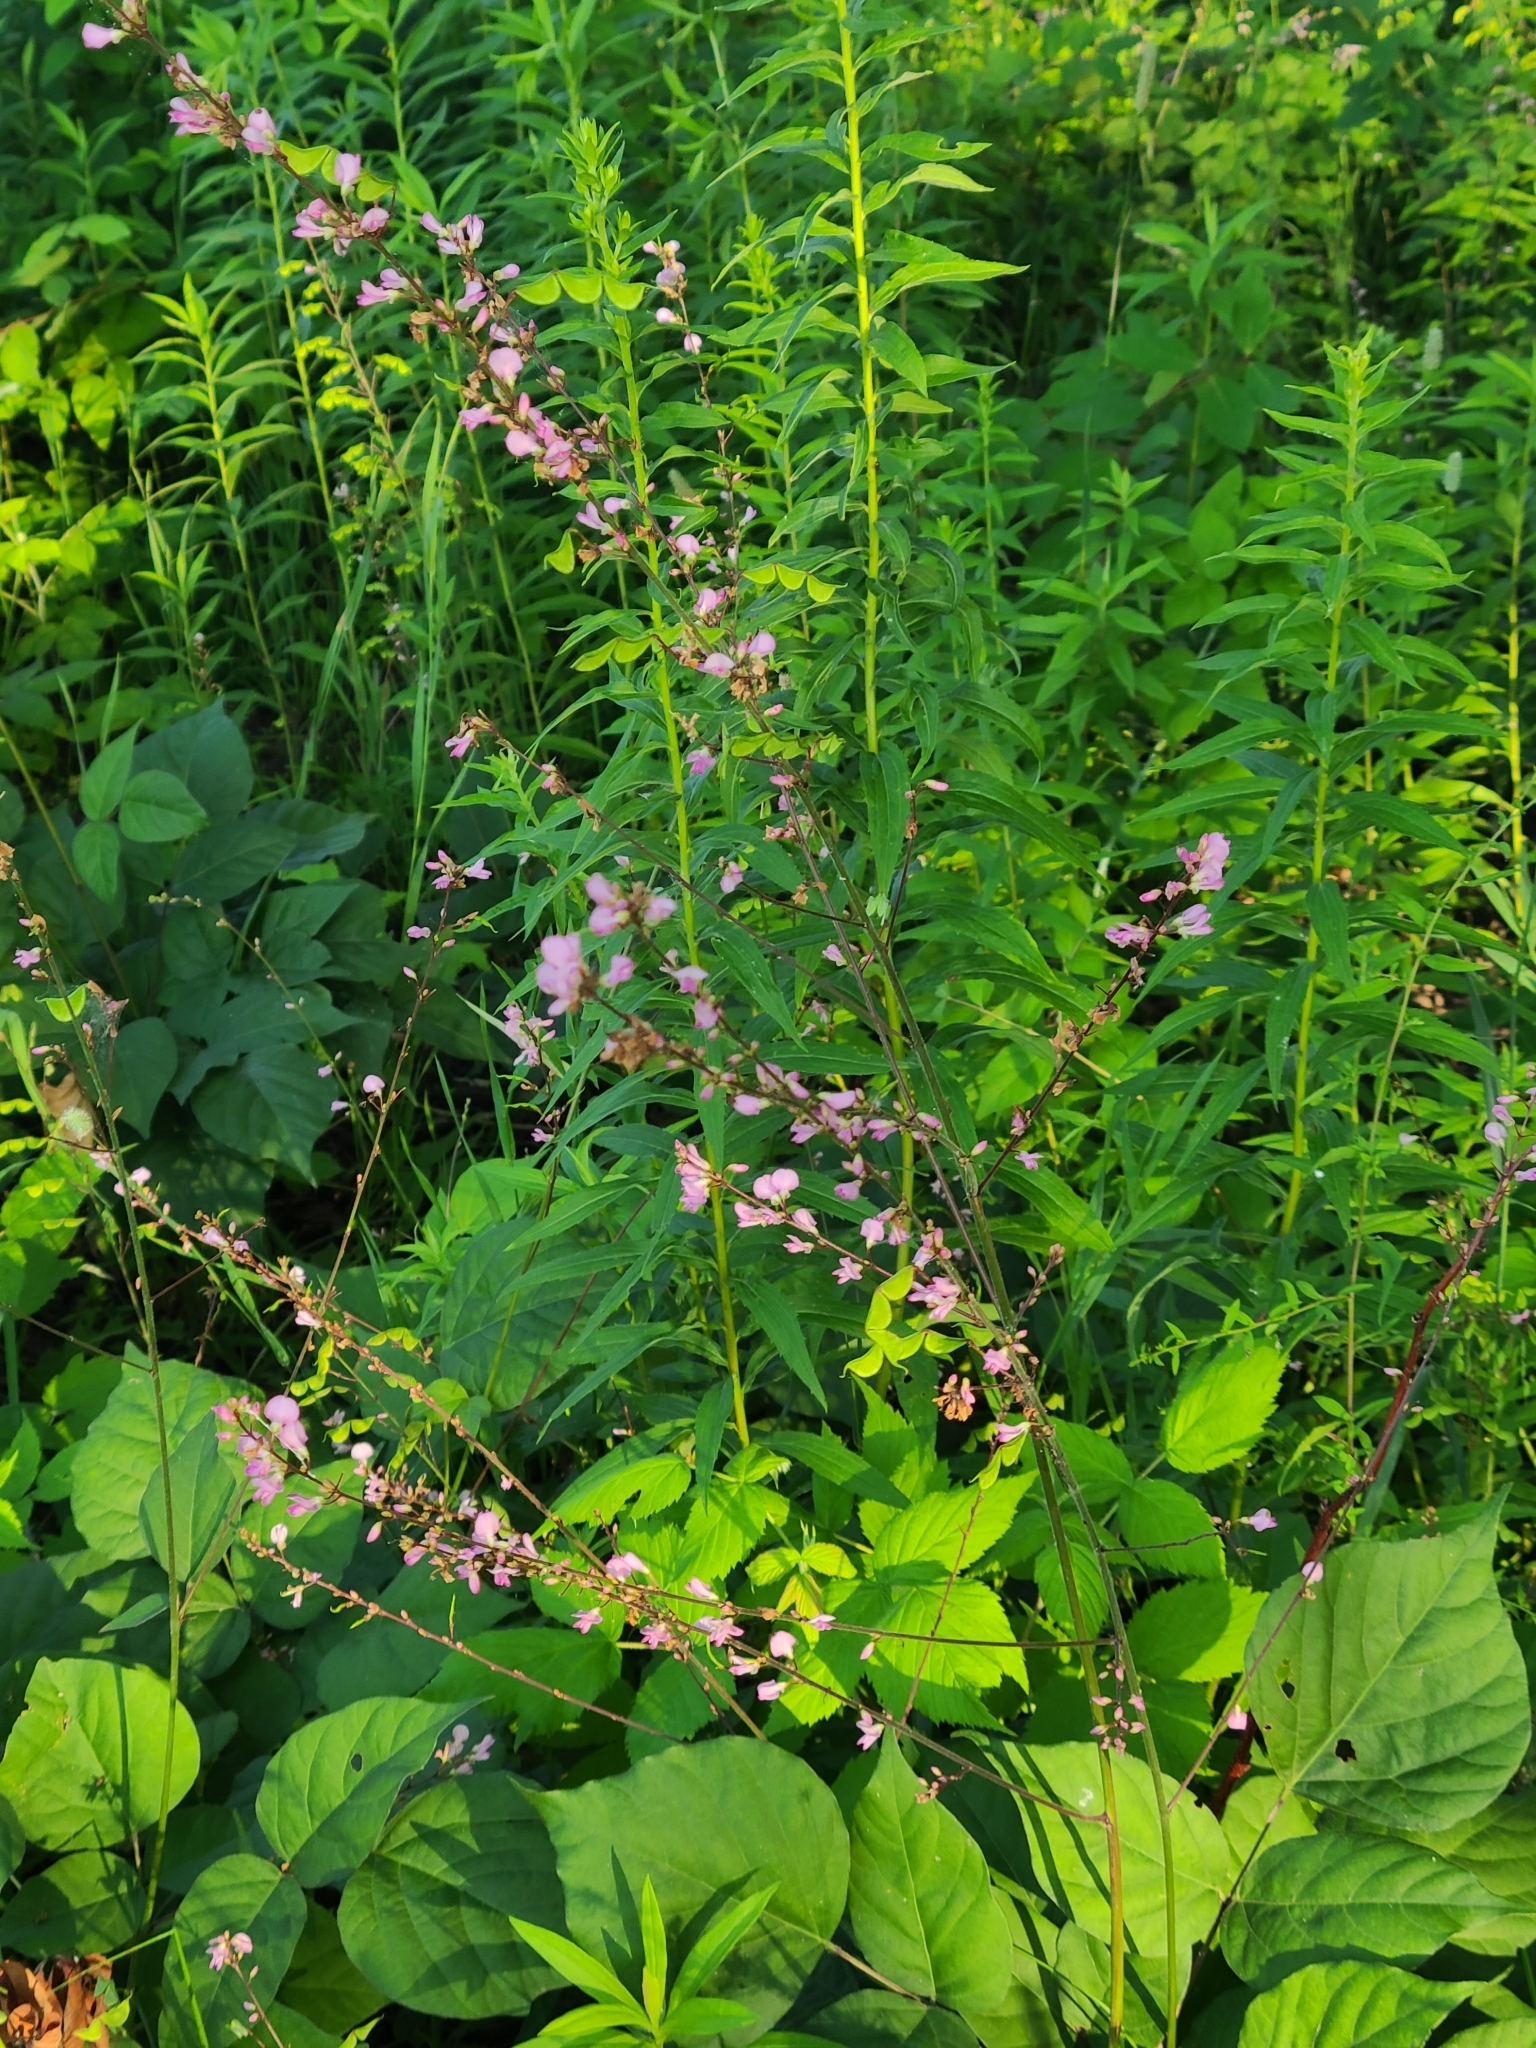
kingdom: Plantae
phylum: Tracheophyta
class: Magnoliopsida
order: Fabales
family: Fabaceae
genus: Hylodesmum
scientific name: Hylodesmum glutinosum
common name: Clustered-leaved tick-trefoil
